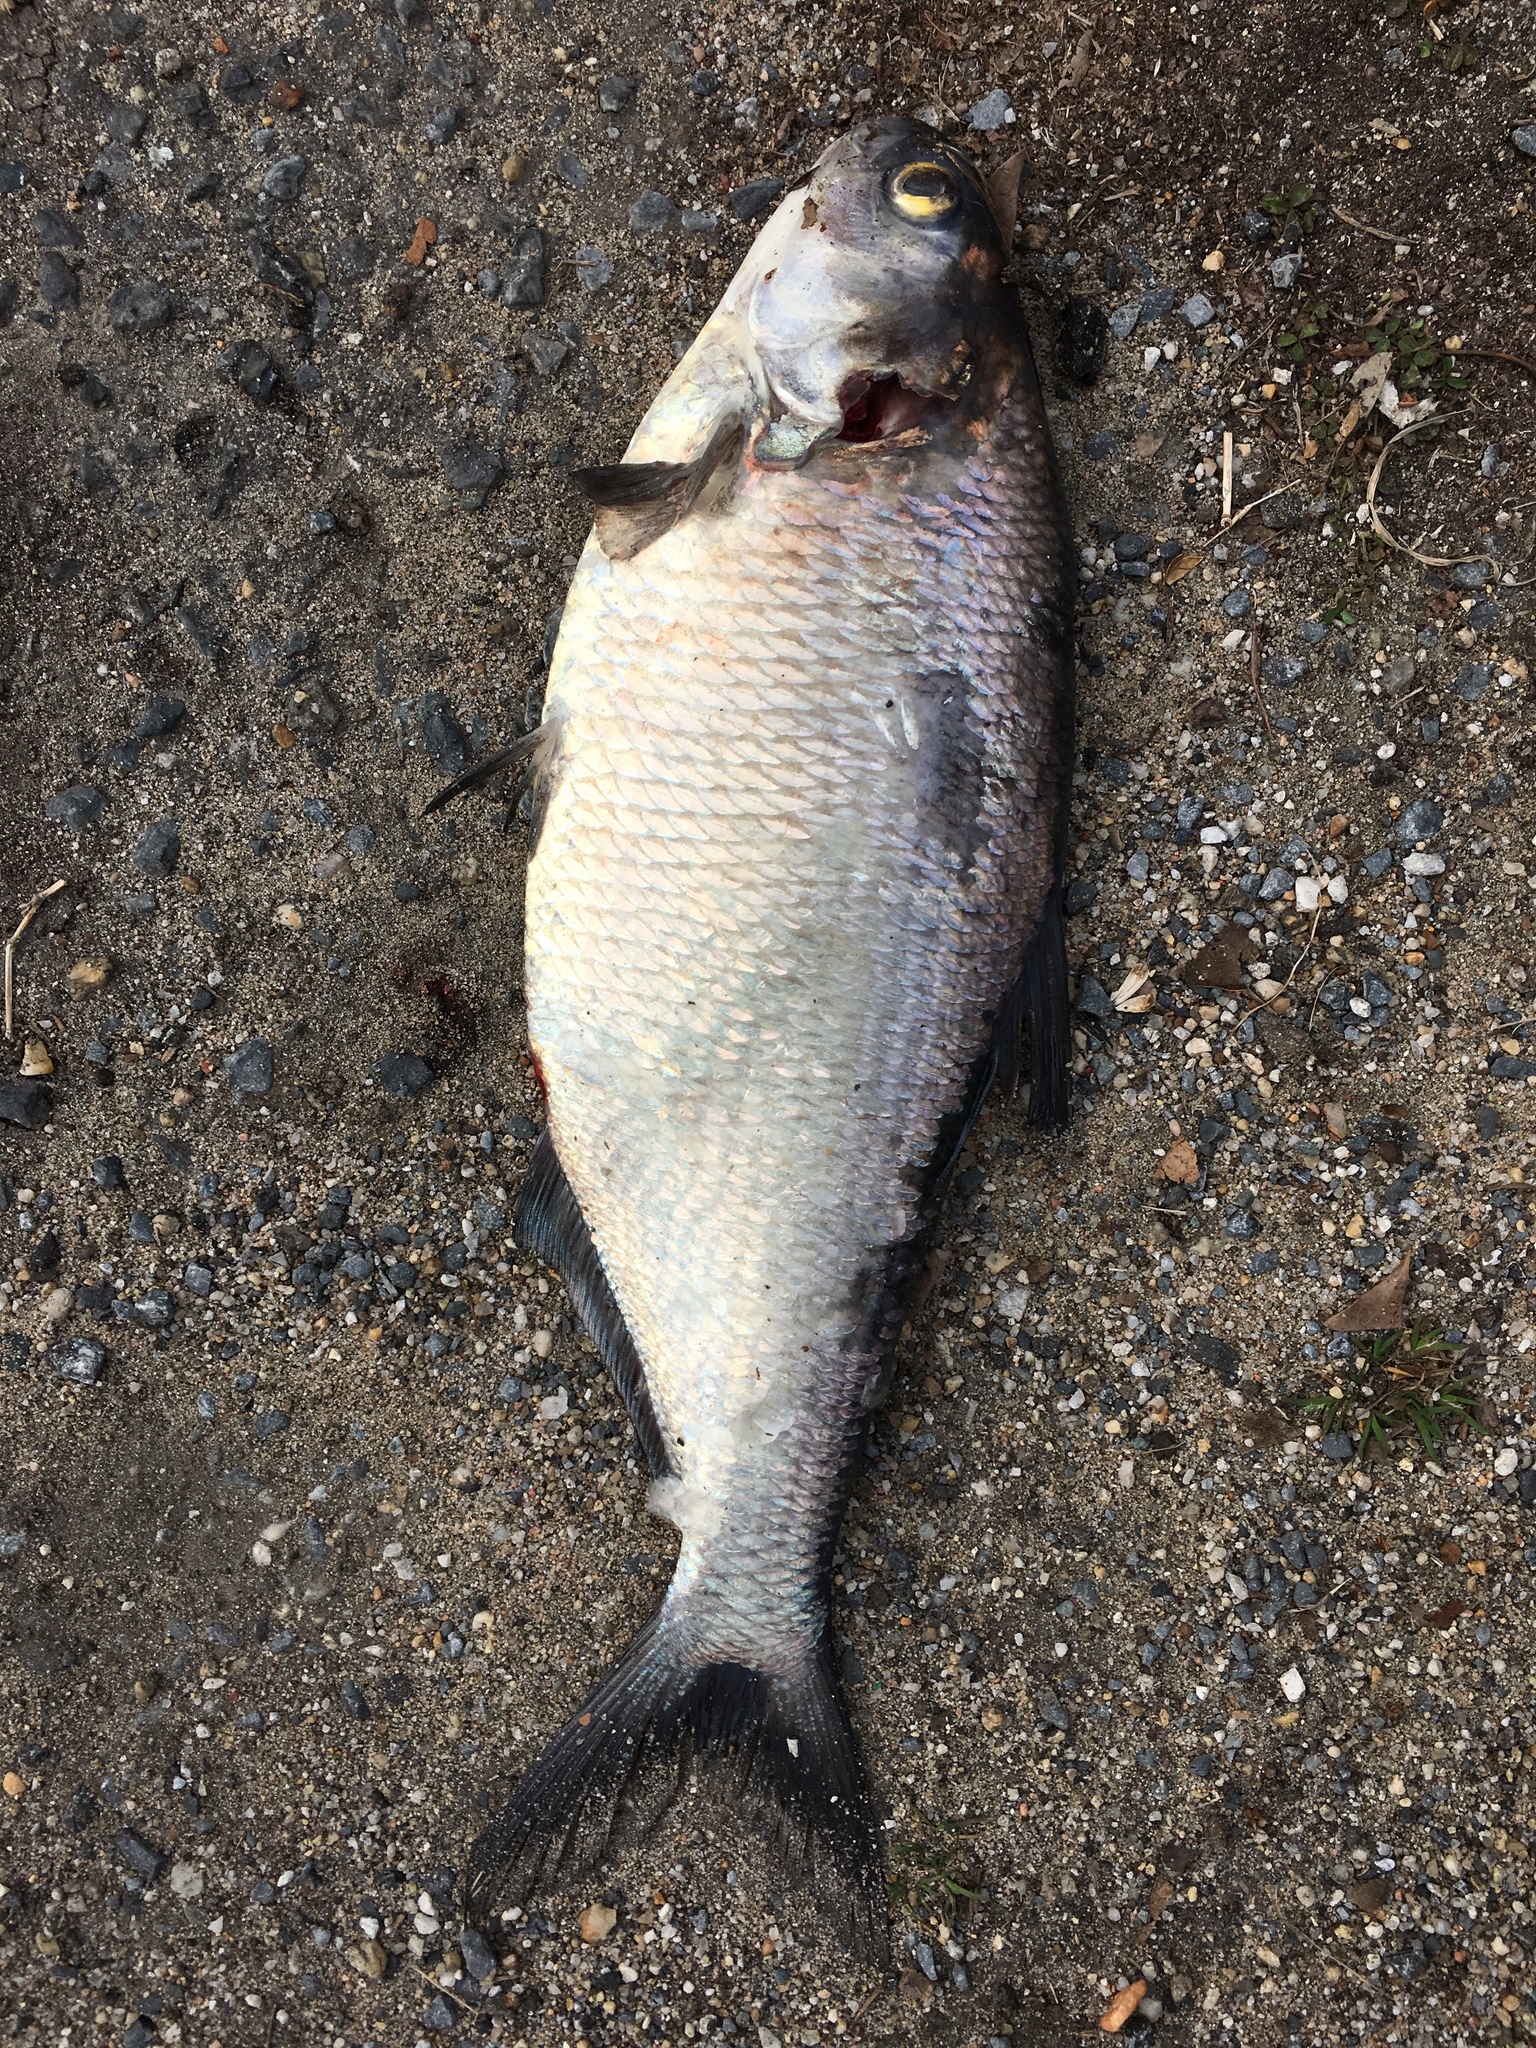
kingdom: Animalia
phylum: Chordata
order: Clupeiformes
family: Clupeidae
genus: Dorosoma
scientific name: Dorosoma cepedianum
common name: Gizzard shad
